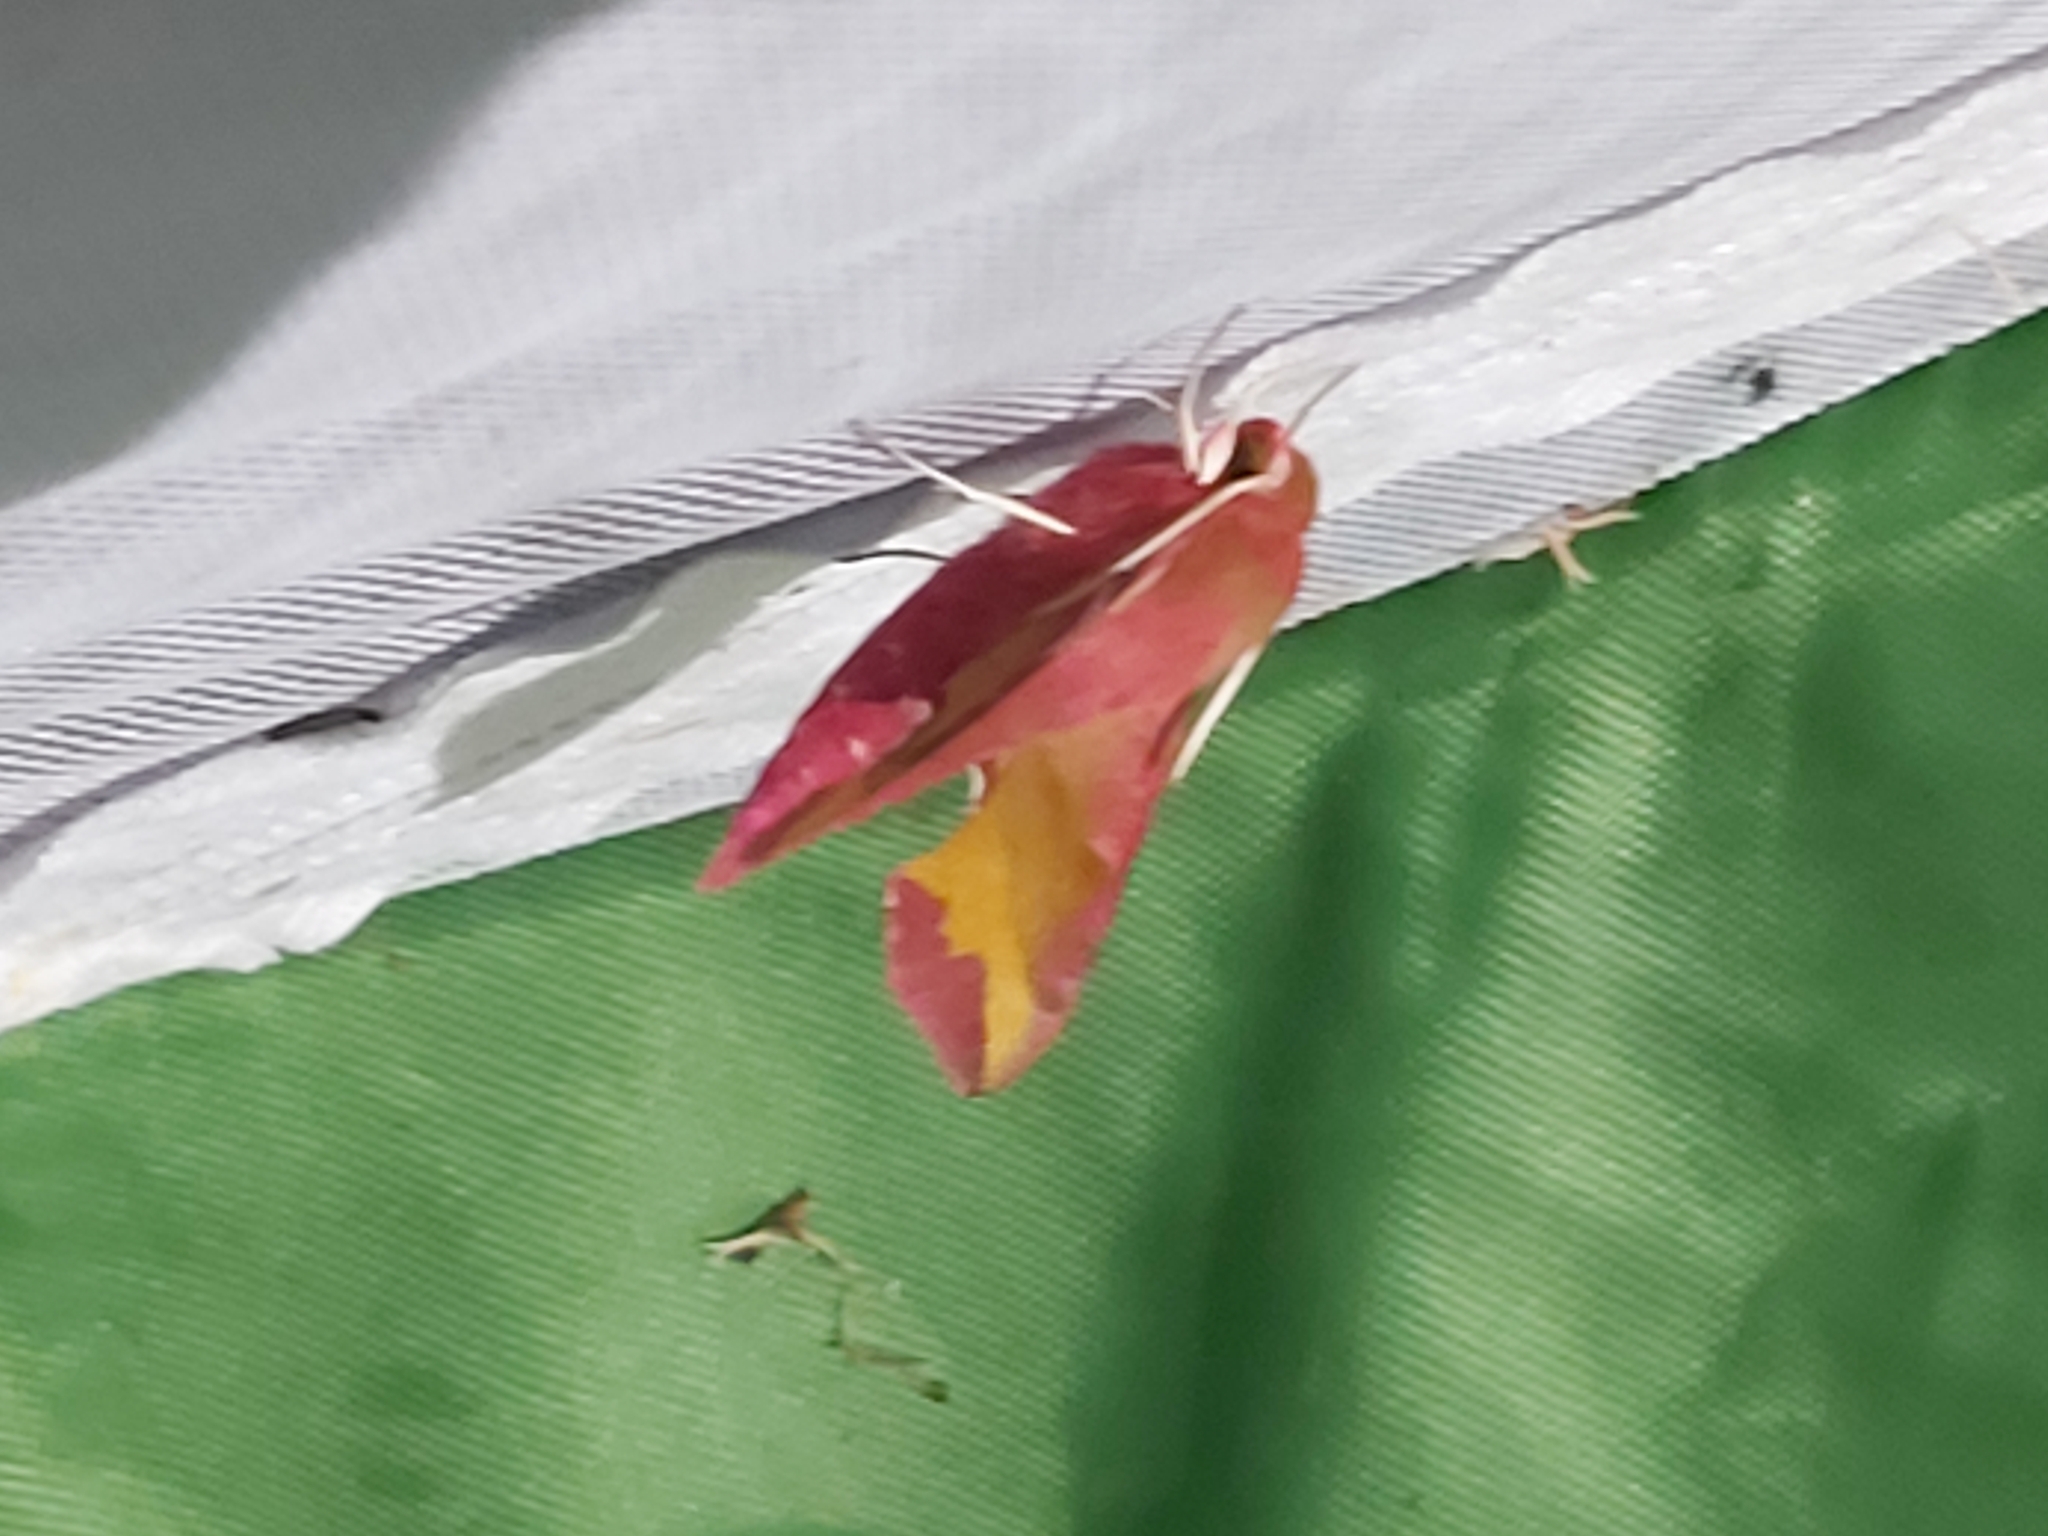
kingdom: Animalia
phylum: Arthropoda
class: Insecta
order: Lepidoptera
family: Sphingidae
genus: Deilephila
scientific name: Deilephila porcellus
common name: Small elephant hawk-moth
